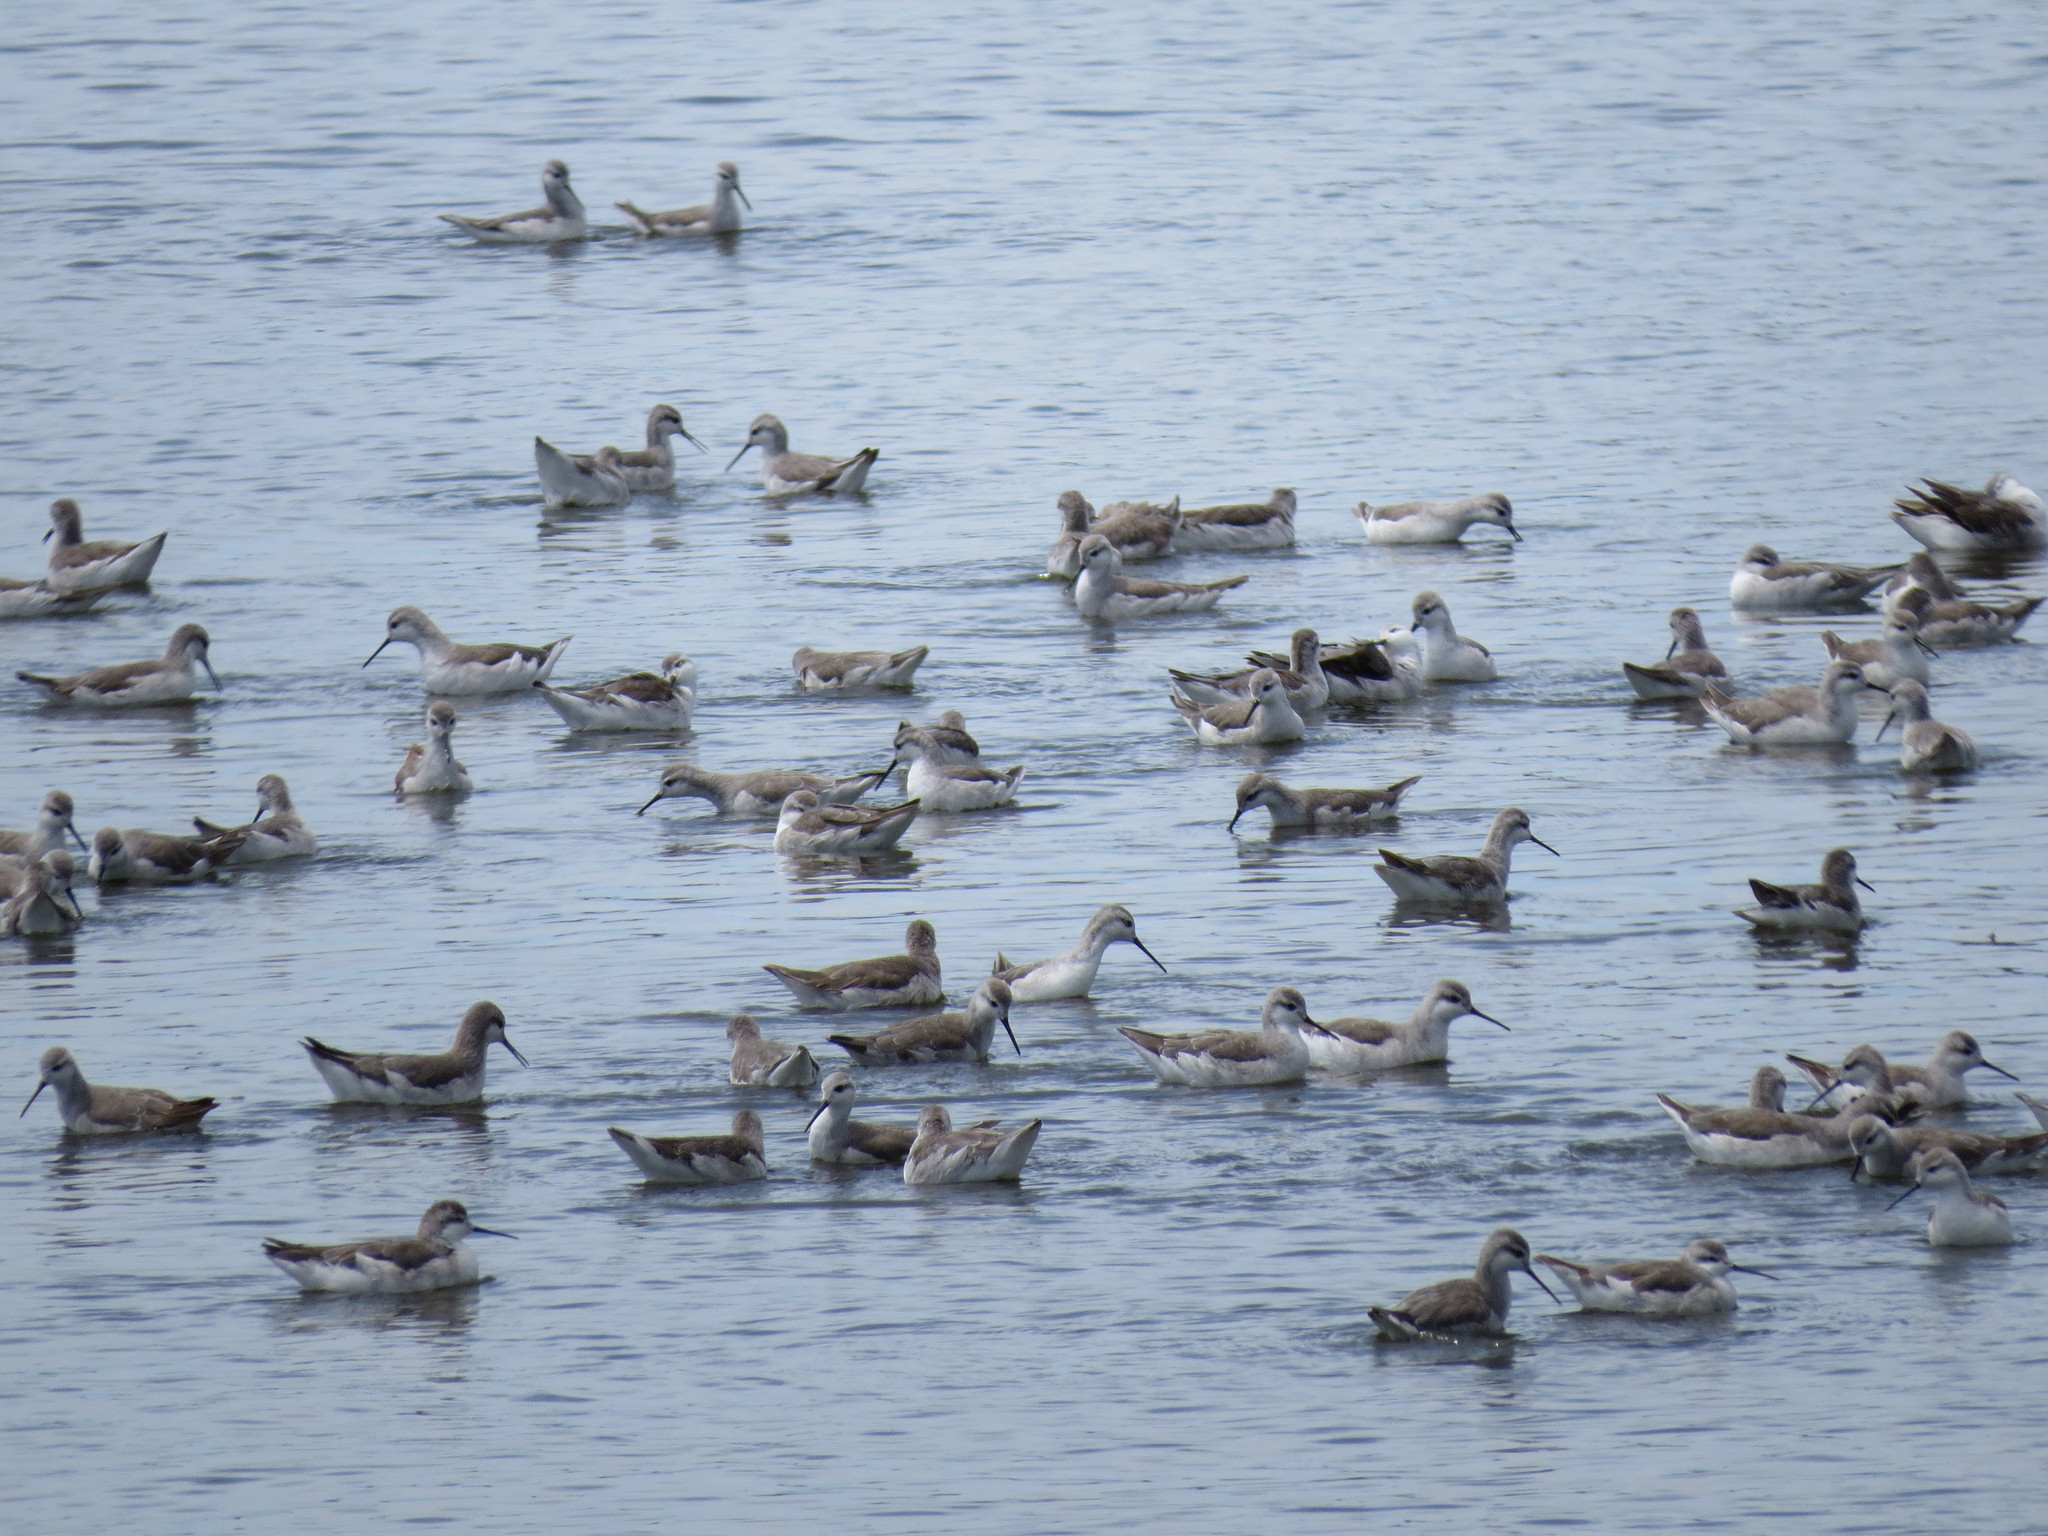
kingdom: Animalia
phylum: Chordata
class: Aves
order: Charadriiformes
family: Scolopacidae
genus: Phalaropus
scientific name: Phalaropus tricolor
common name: Wilson's phalarope
